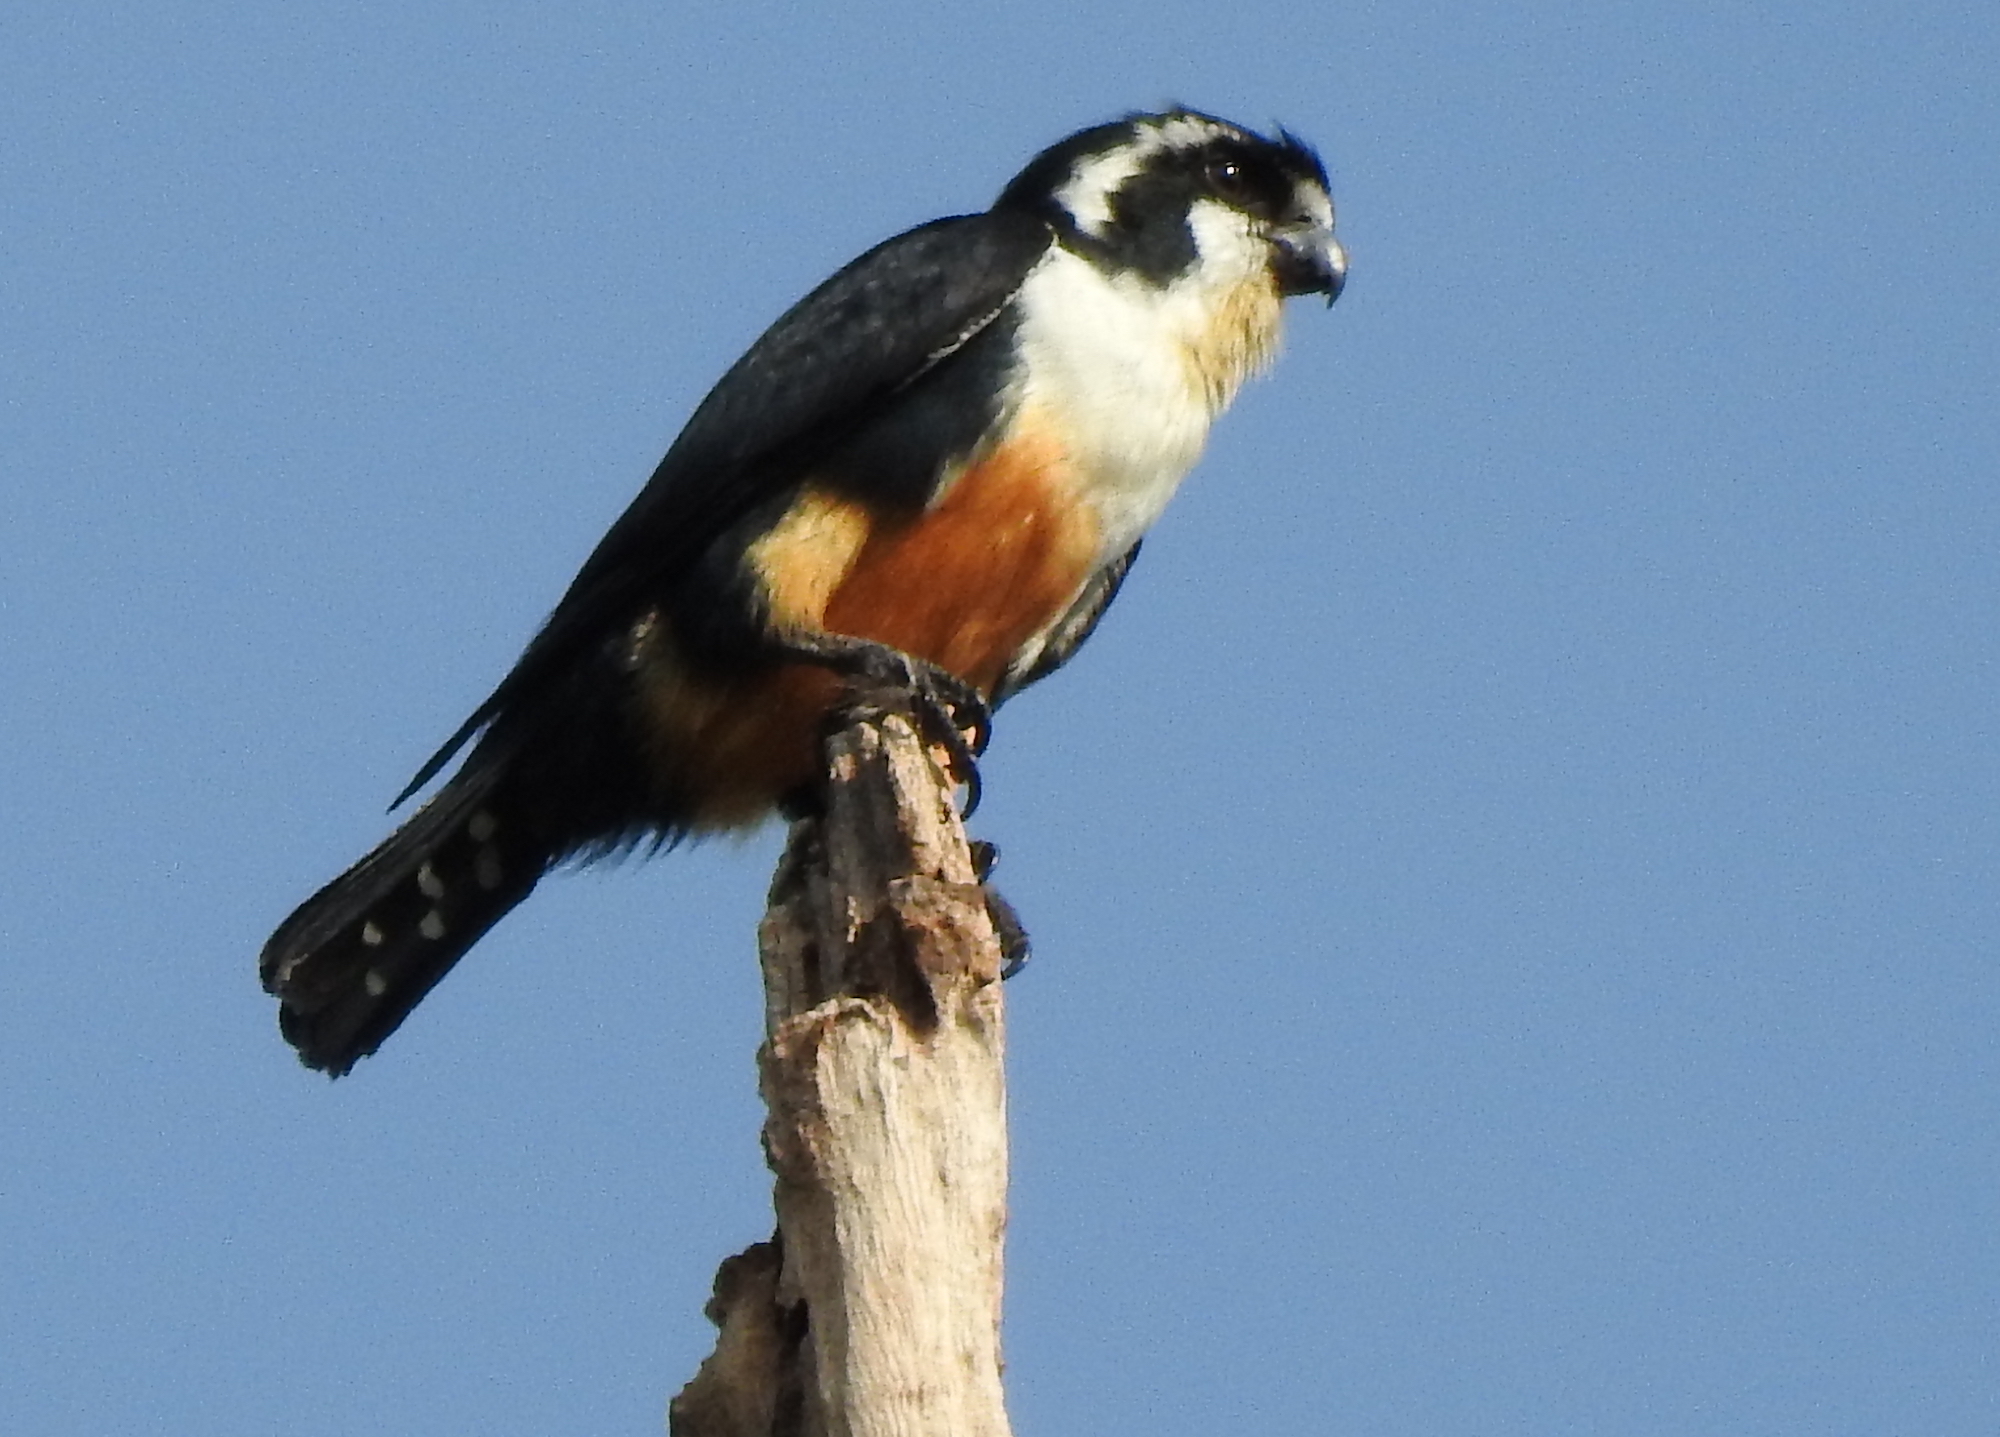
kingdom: Animalia
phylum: Chordata
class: Aves
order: Falconiformes
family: Falconidae
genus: Microhierax
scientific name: Microhierax fringillarius
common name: Black-thighed falconet
